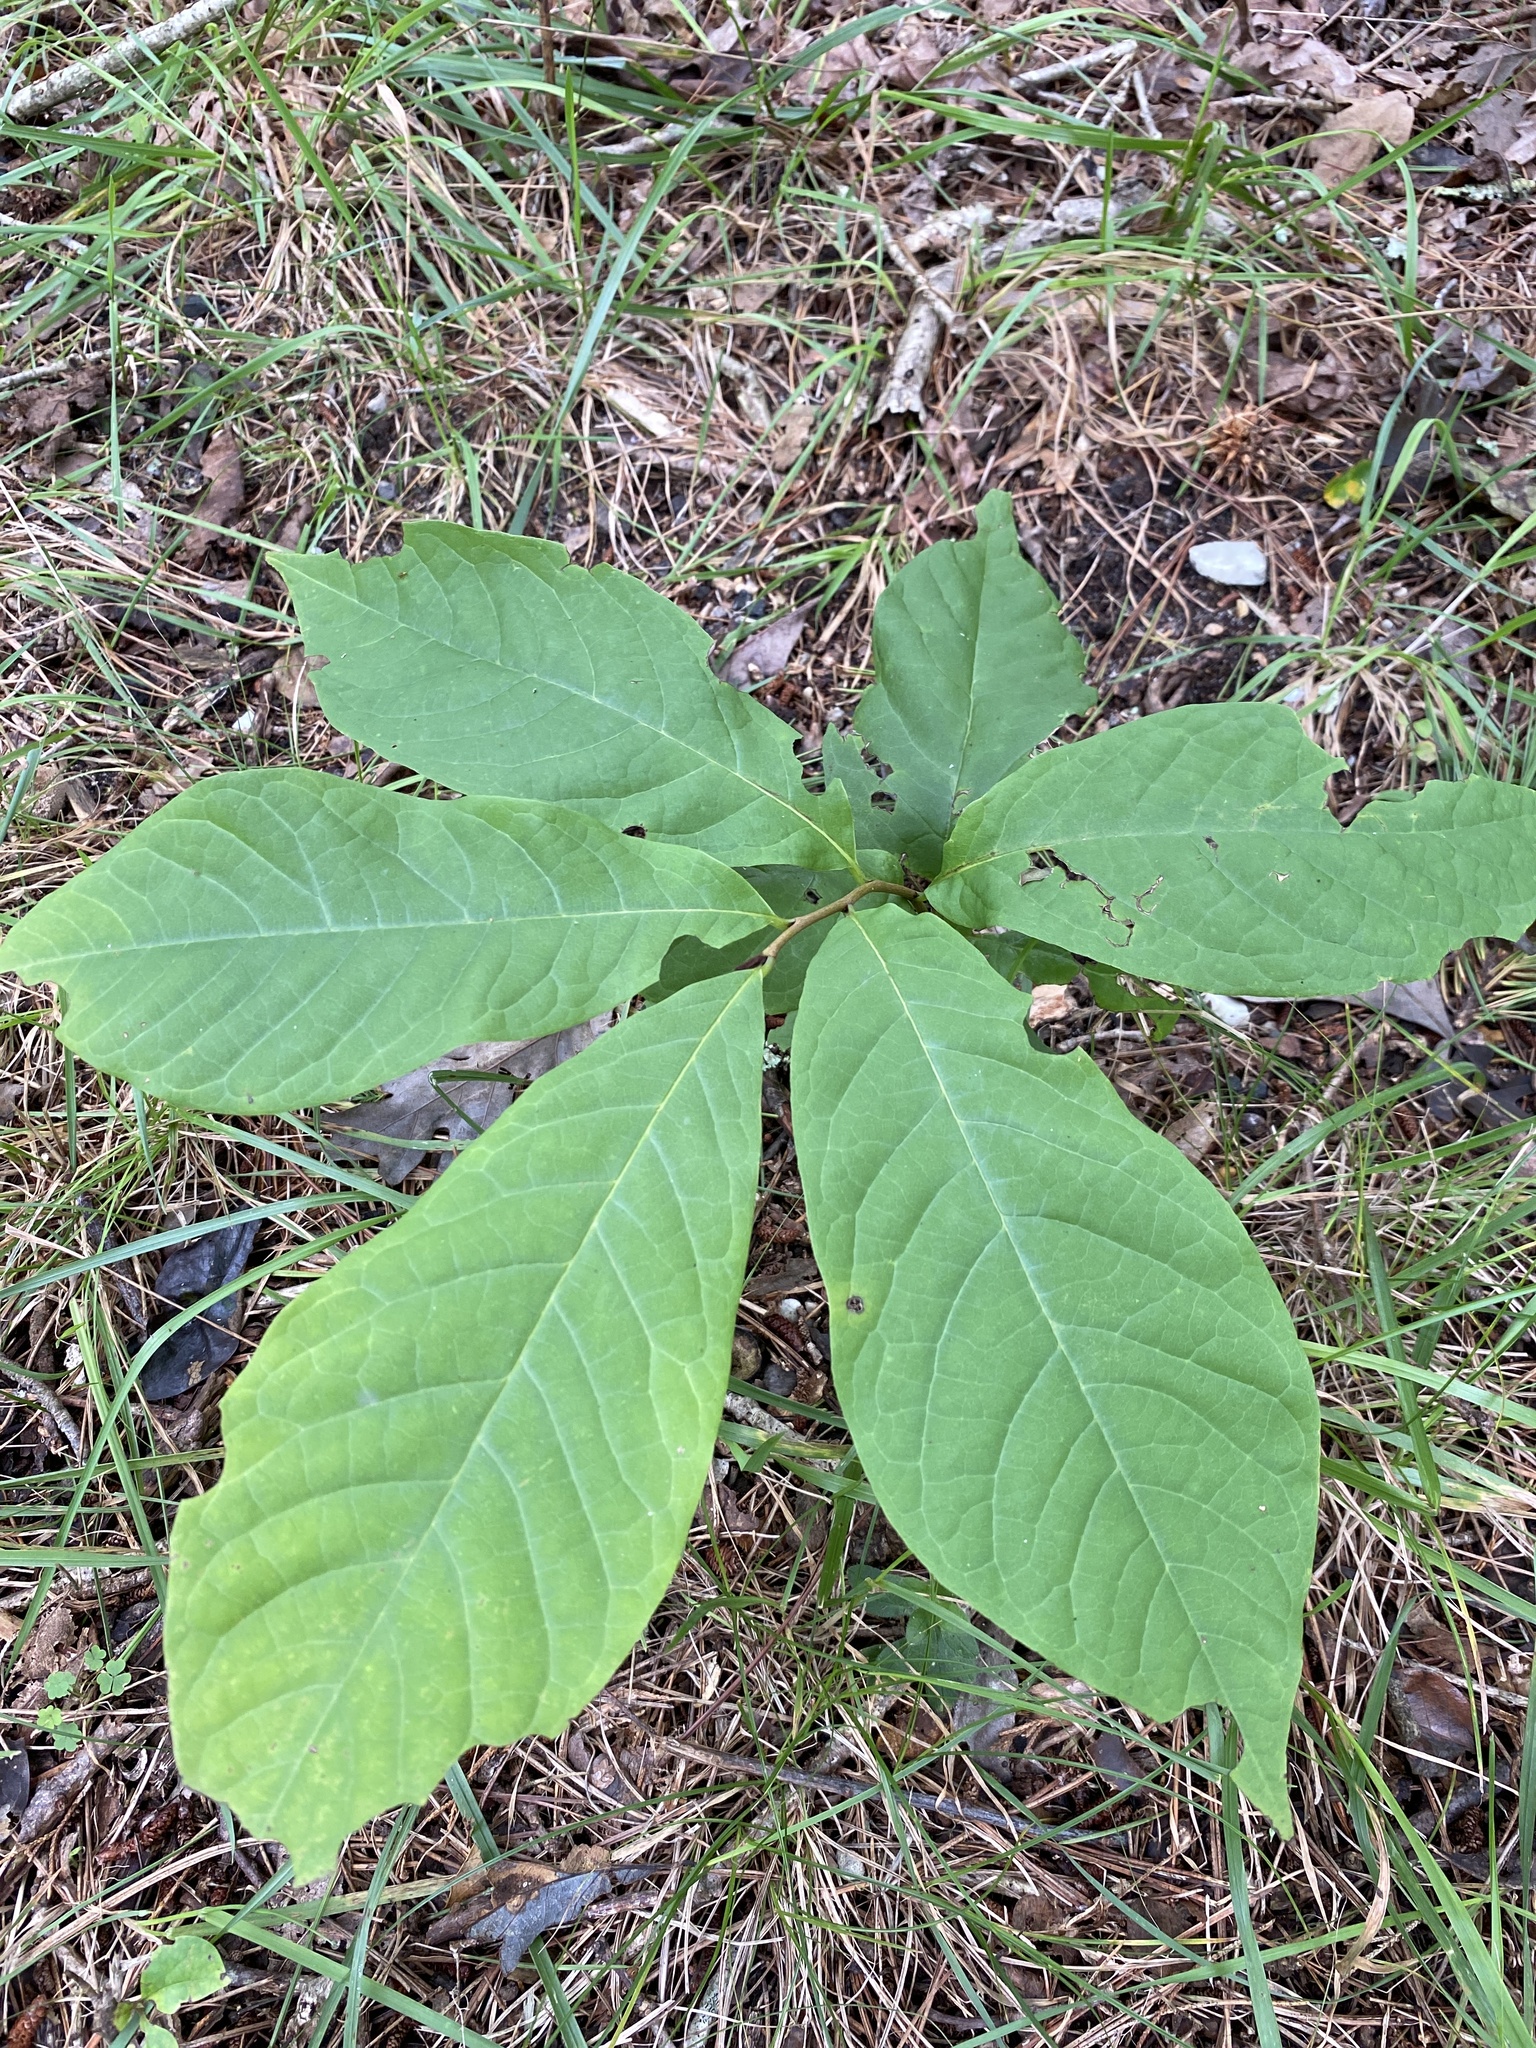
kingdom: Plantae
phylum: Tracheophyta
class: Magnoliopsida
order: Magnoliales
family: Annonaceae
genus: Asimina
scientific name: Asimina triloba
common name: Dog-banana
